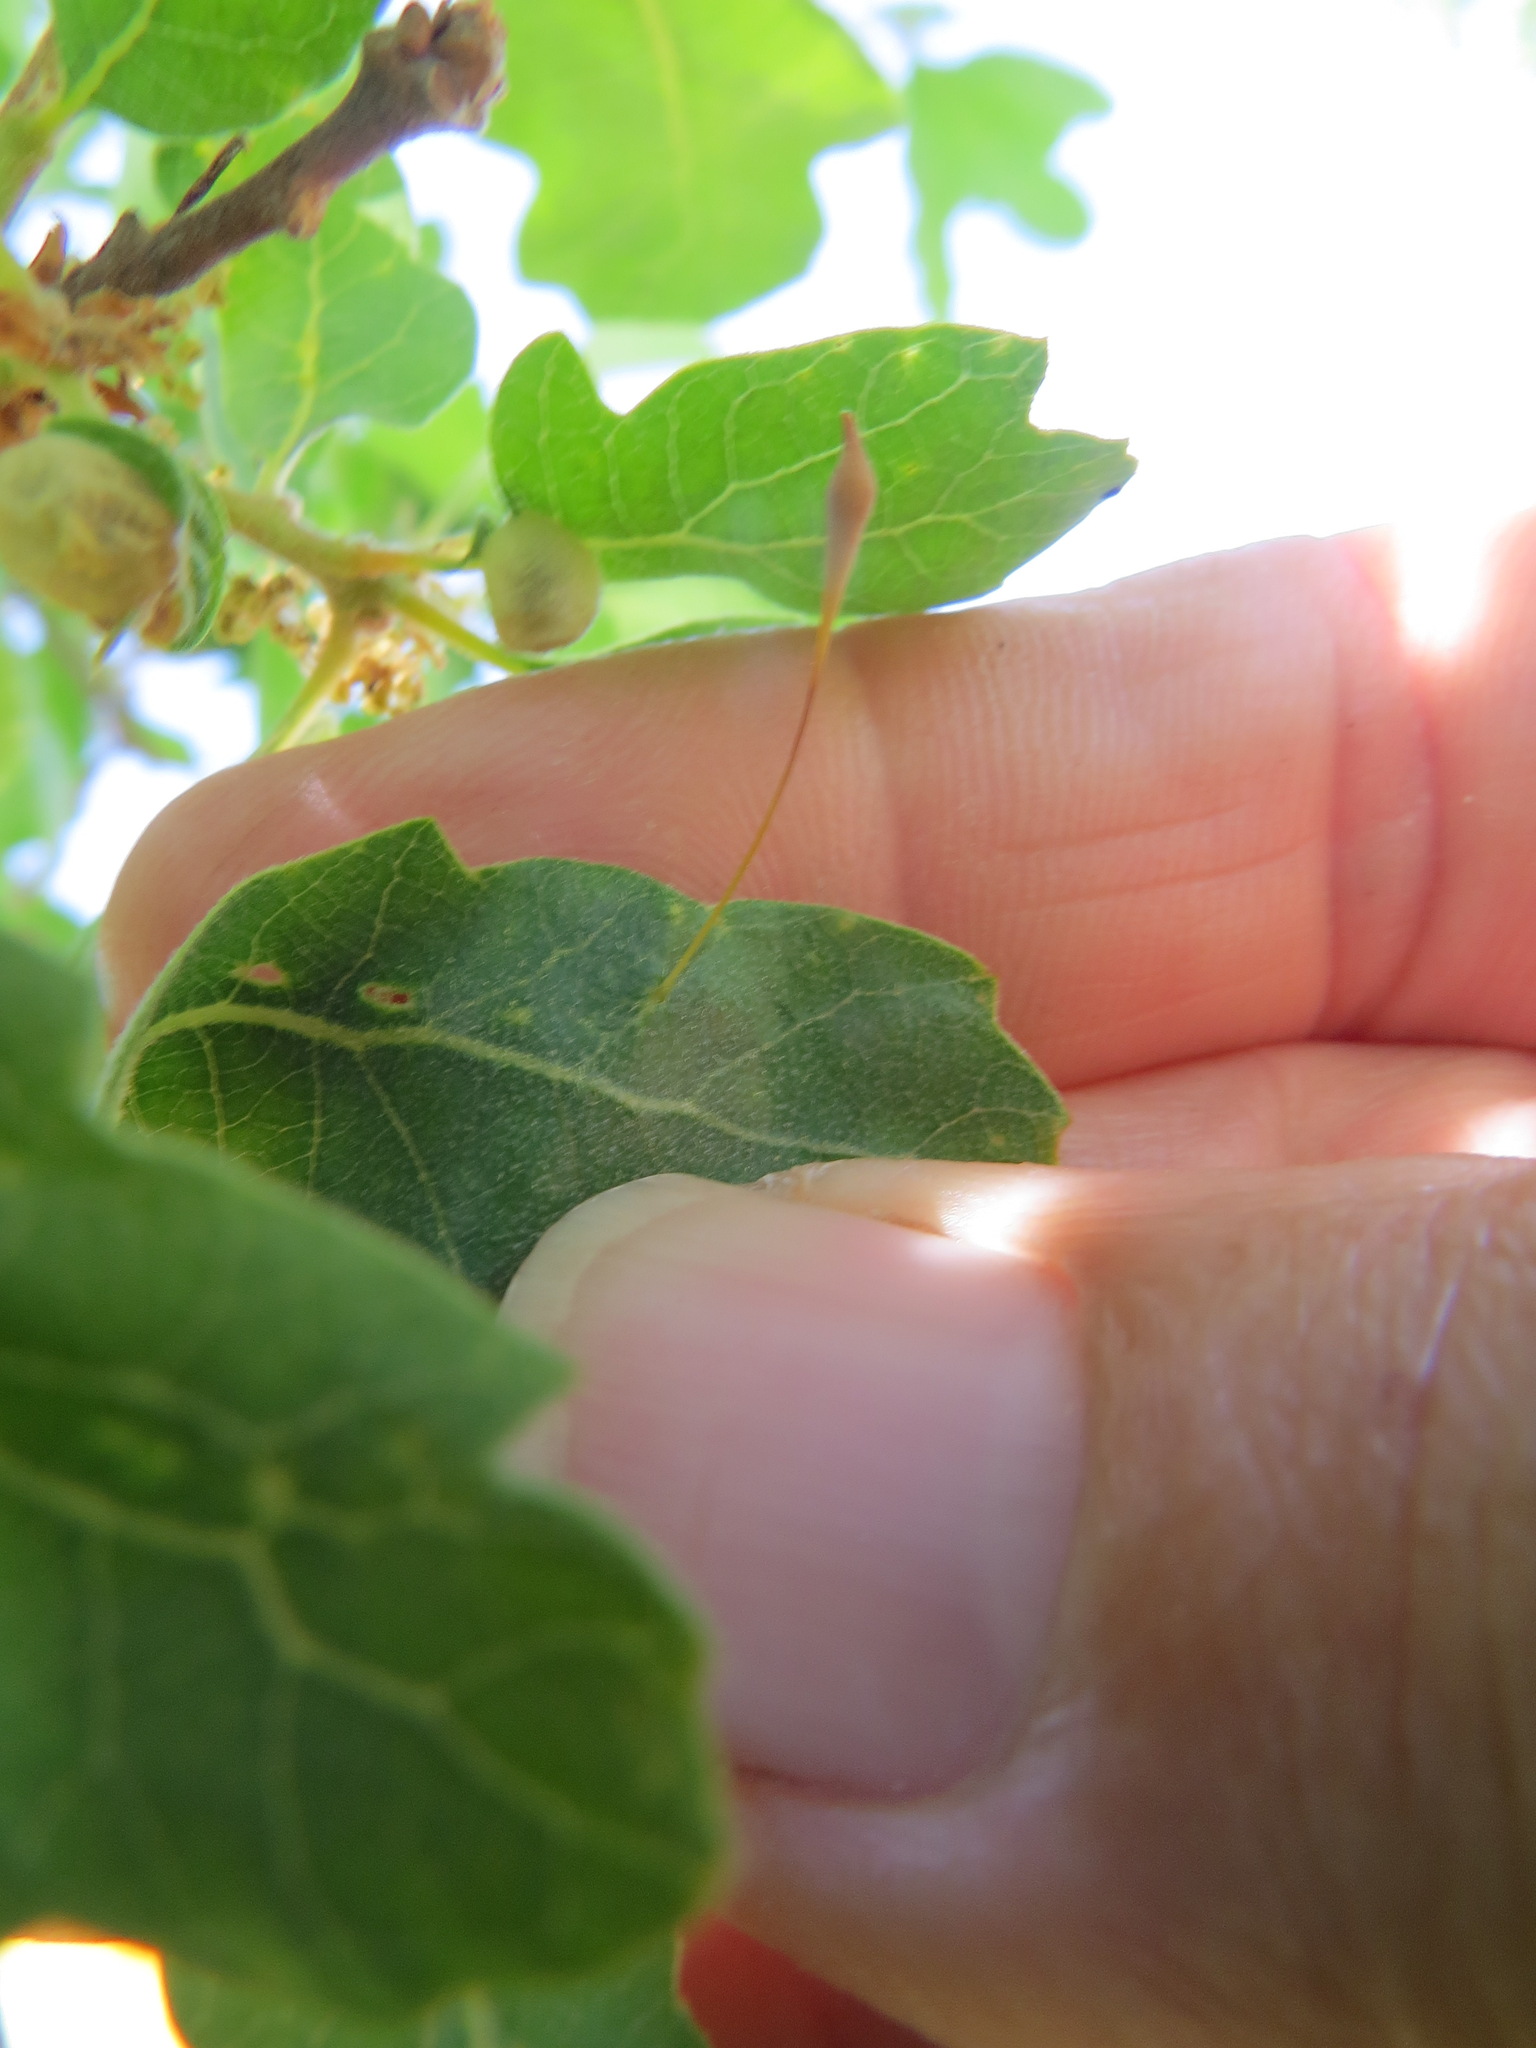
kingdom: Animalia
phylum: Arthropoda
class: Insecta
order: Hymenoptera
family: Cynipidae
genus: Andricus
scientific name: Andricus
